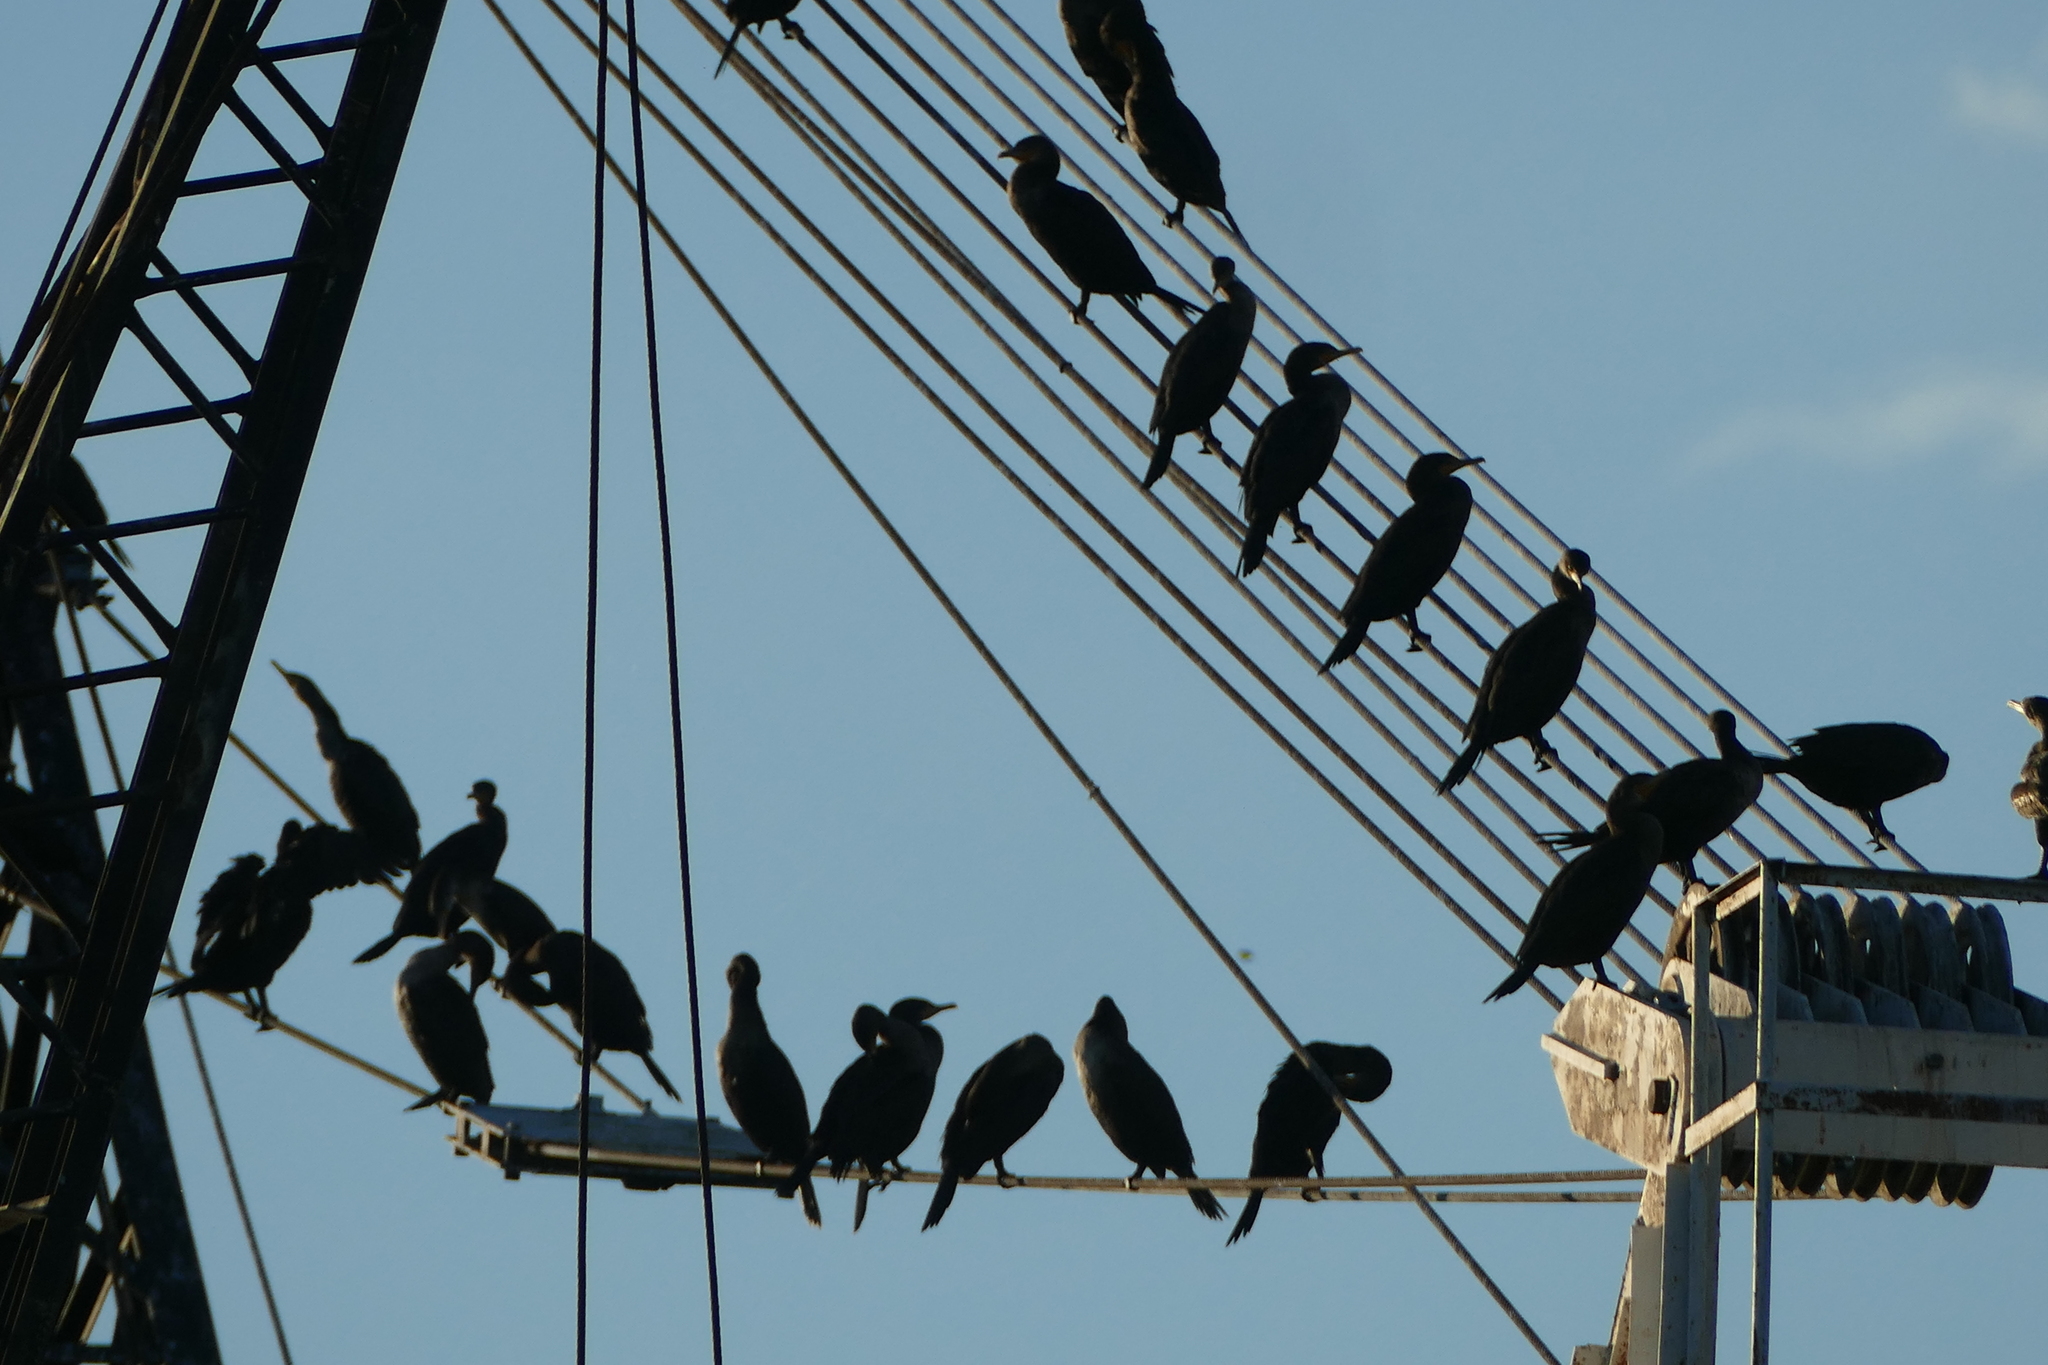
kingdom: Animalia
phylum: Chordata
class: Aves
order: Suliformes
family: Phalacrocoracidae
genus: Phalacrocorax
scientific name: Phalacrocorax auritus
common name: Double-crested cormorant
